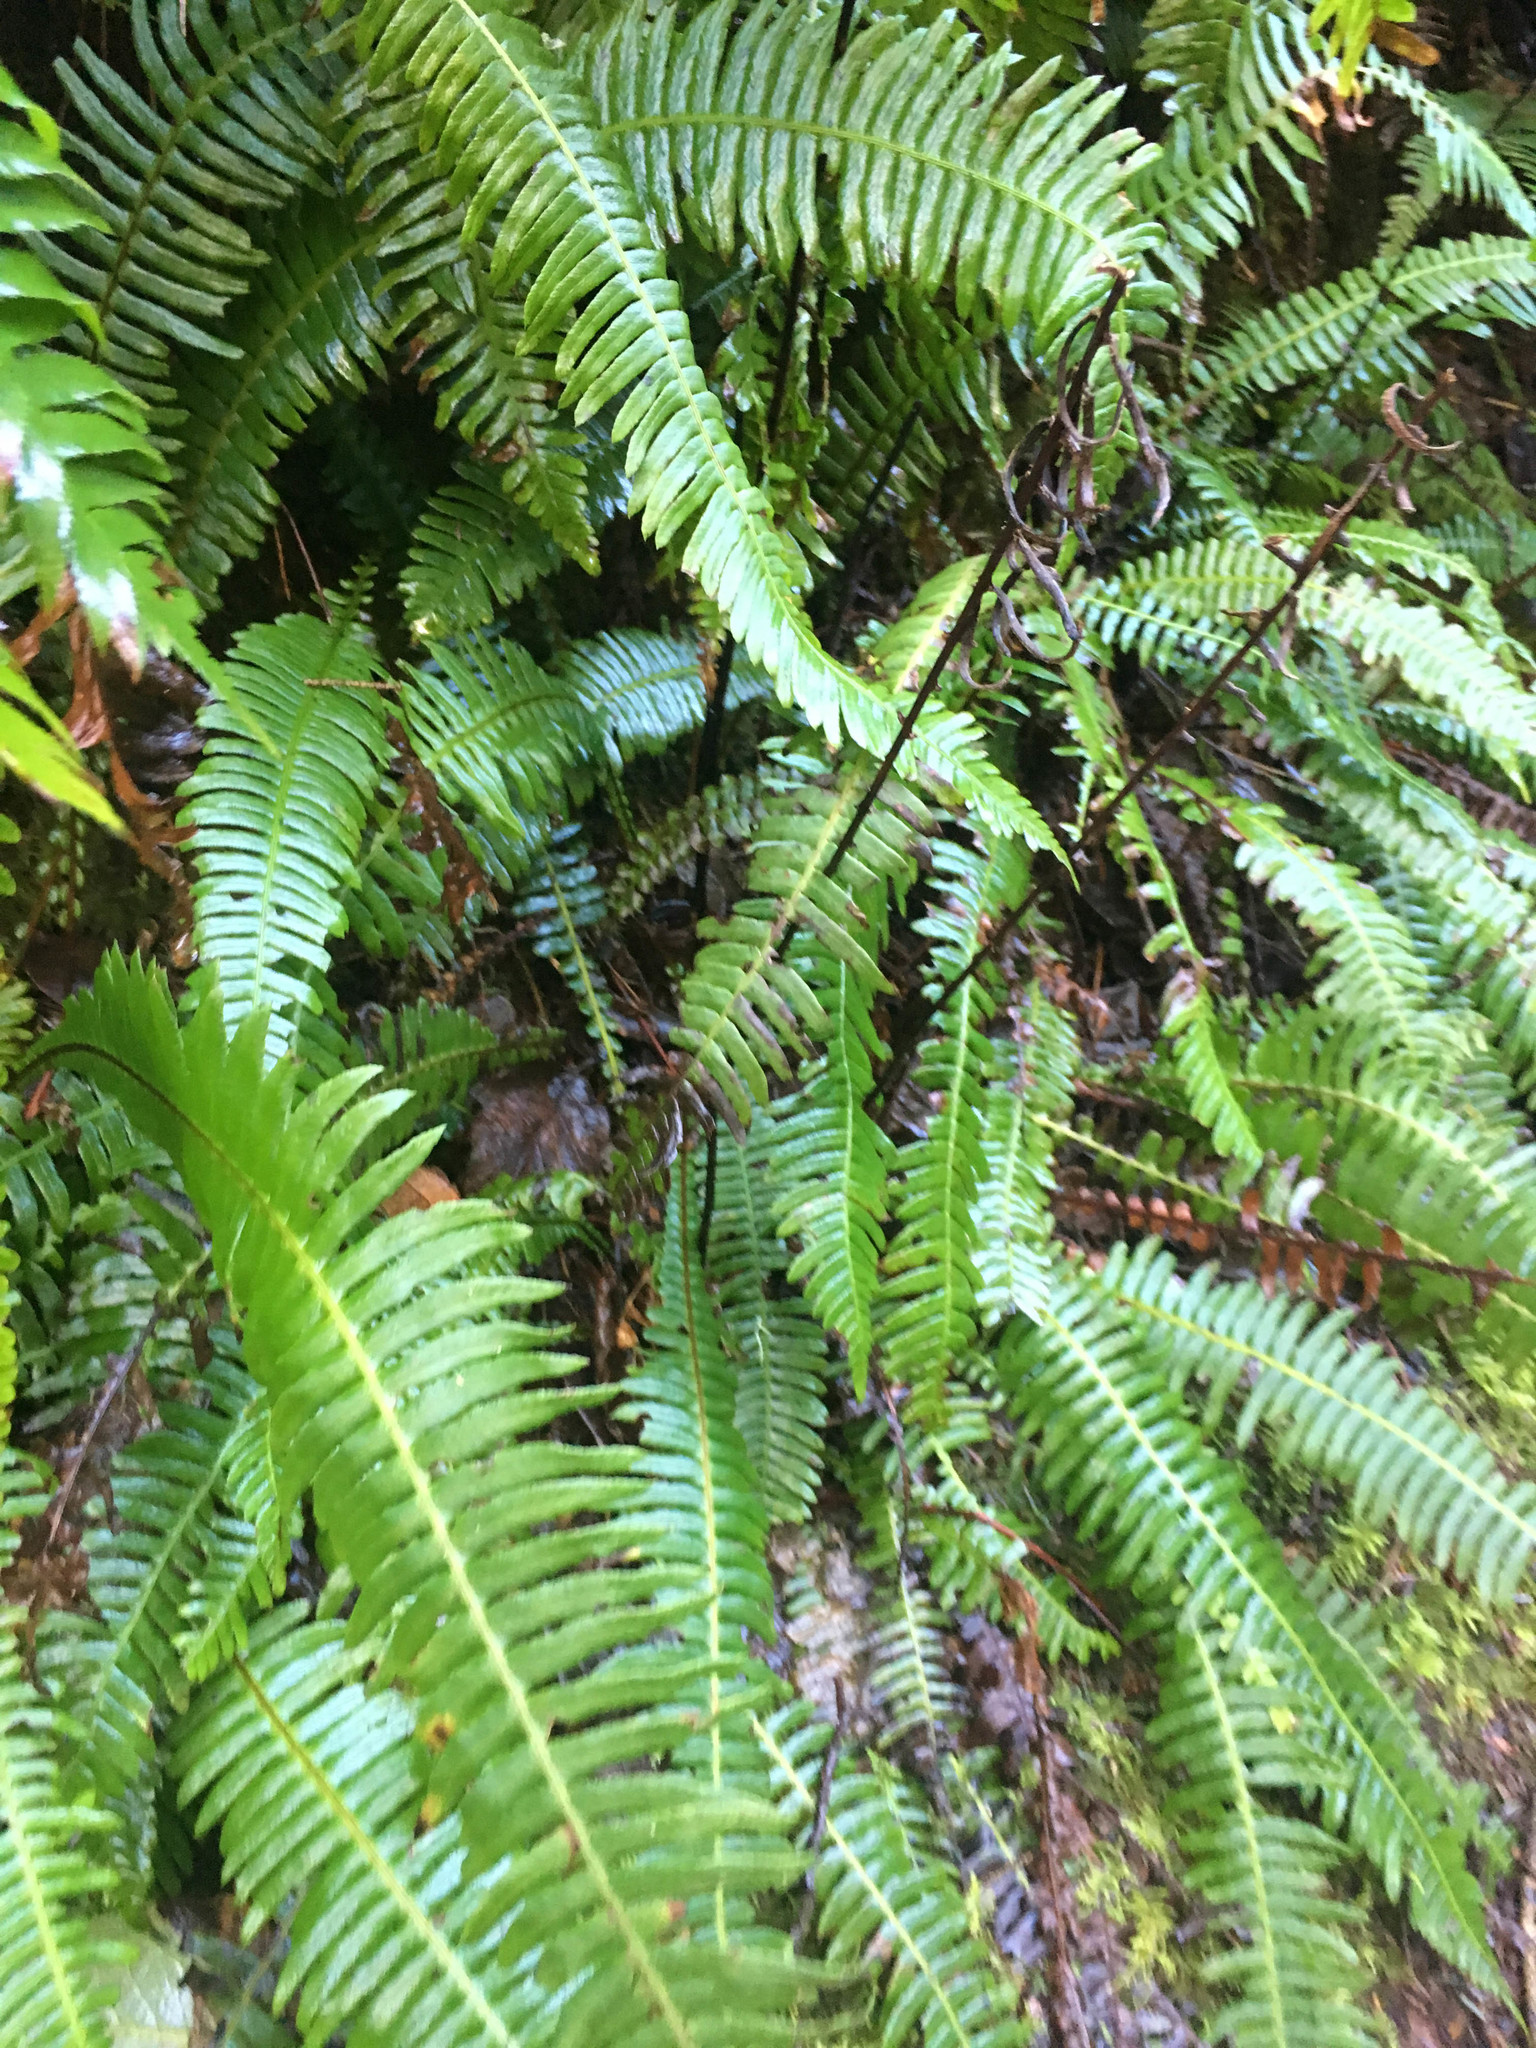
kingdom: Plantae
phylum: Tracheophyta
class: Polypodiopsida
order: Polypodiales
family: Blechnaceae
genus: Struthiopteris
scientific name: Struthiopteris spicant
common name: Deer fern
